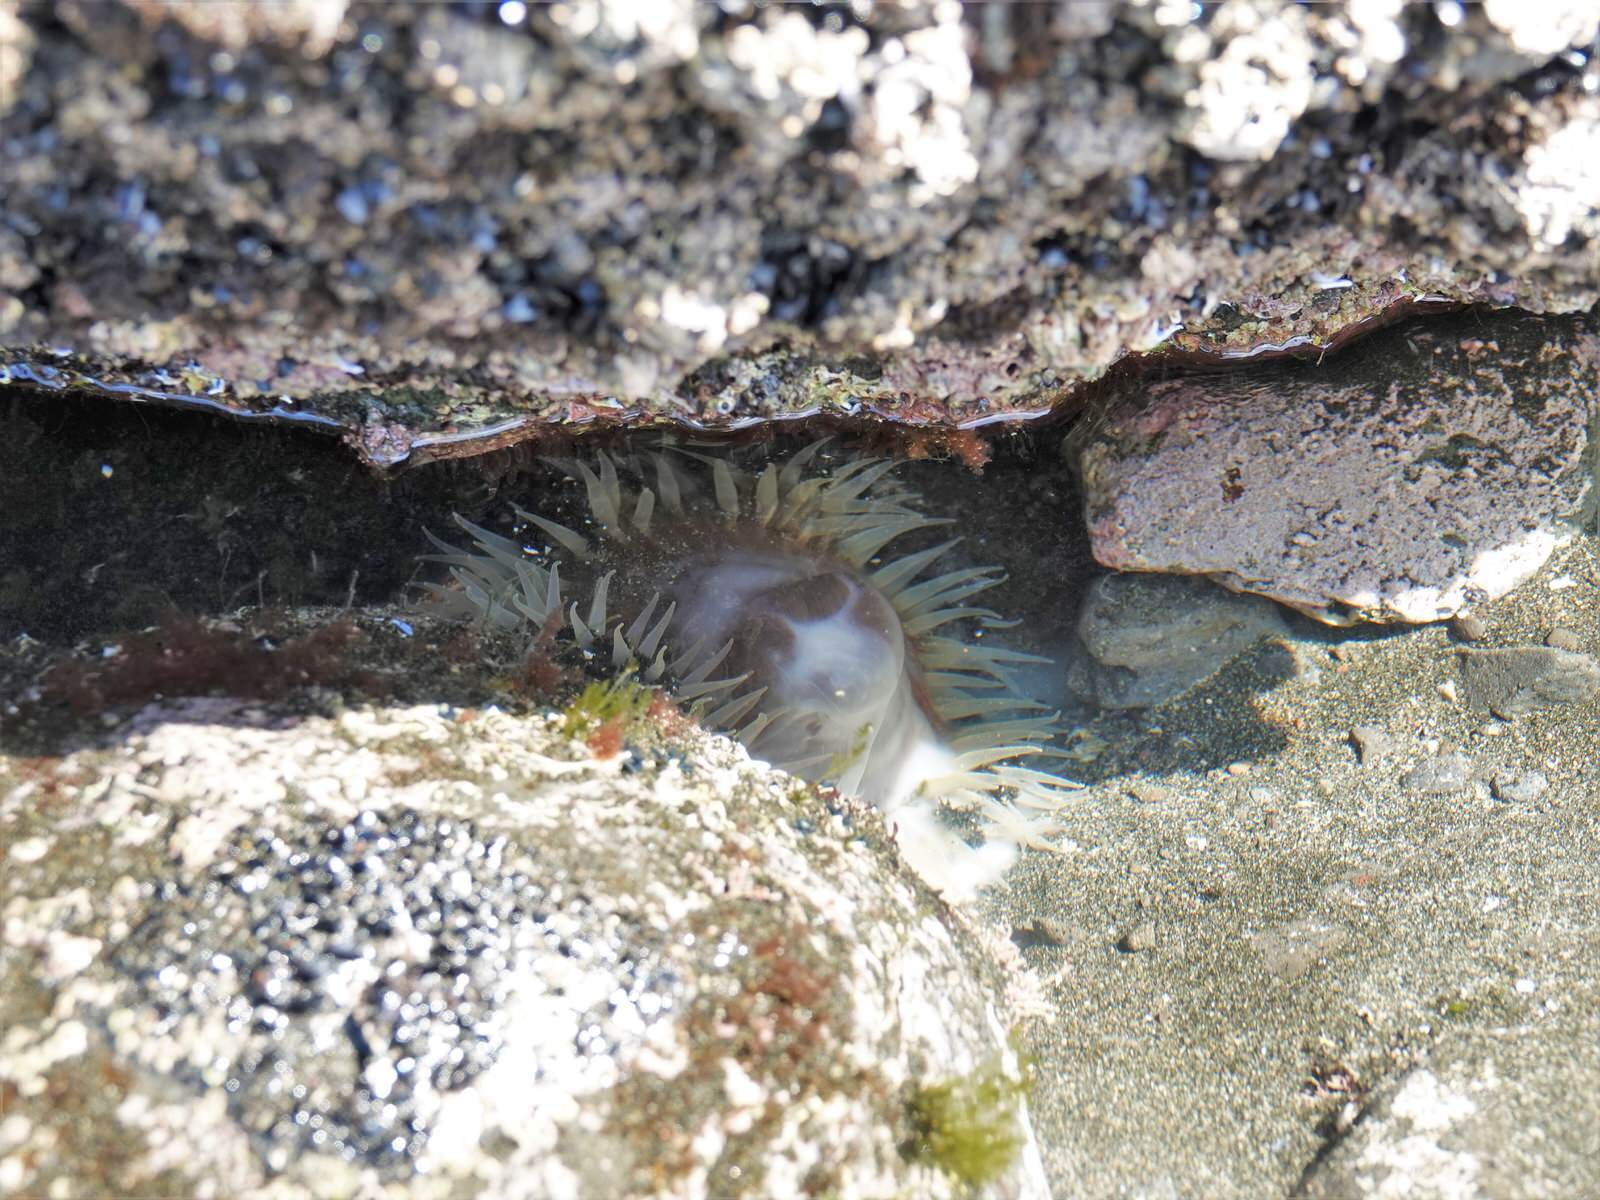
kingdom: Animalia
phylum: Cnidaria
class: Anthozoa
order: Actiniaria
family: Actiniidae
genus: Oulactis
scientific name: Oulactis magna
